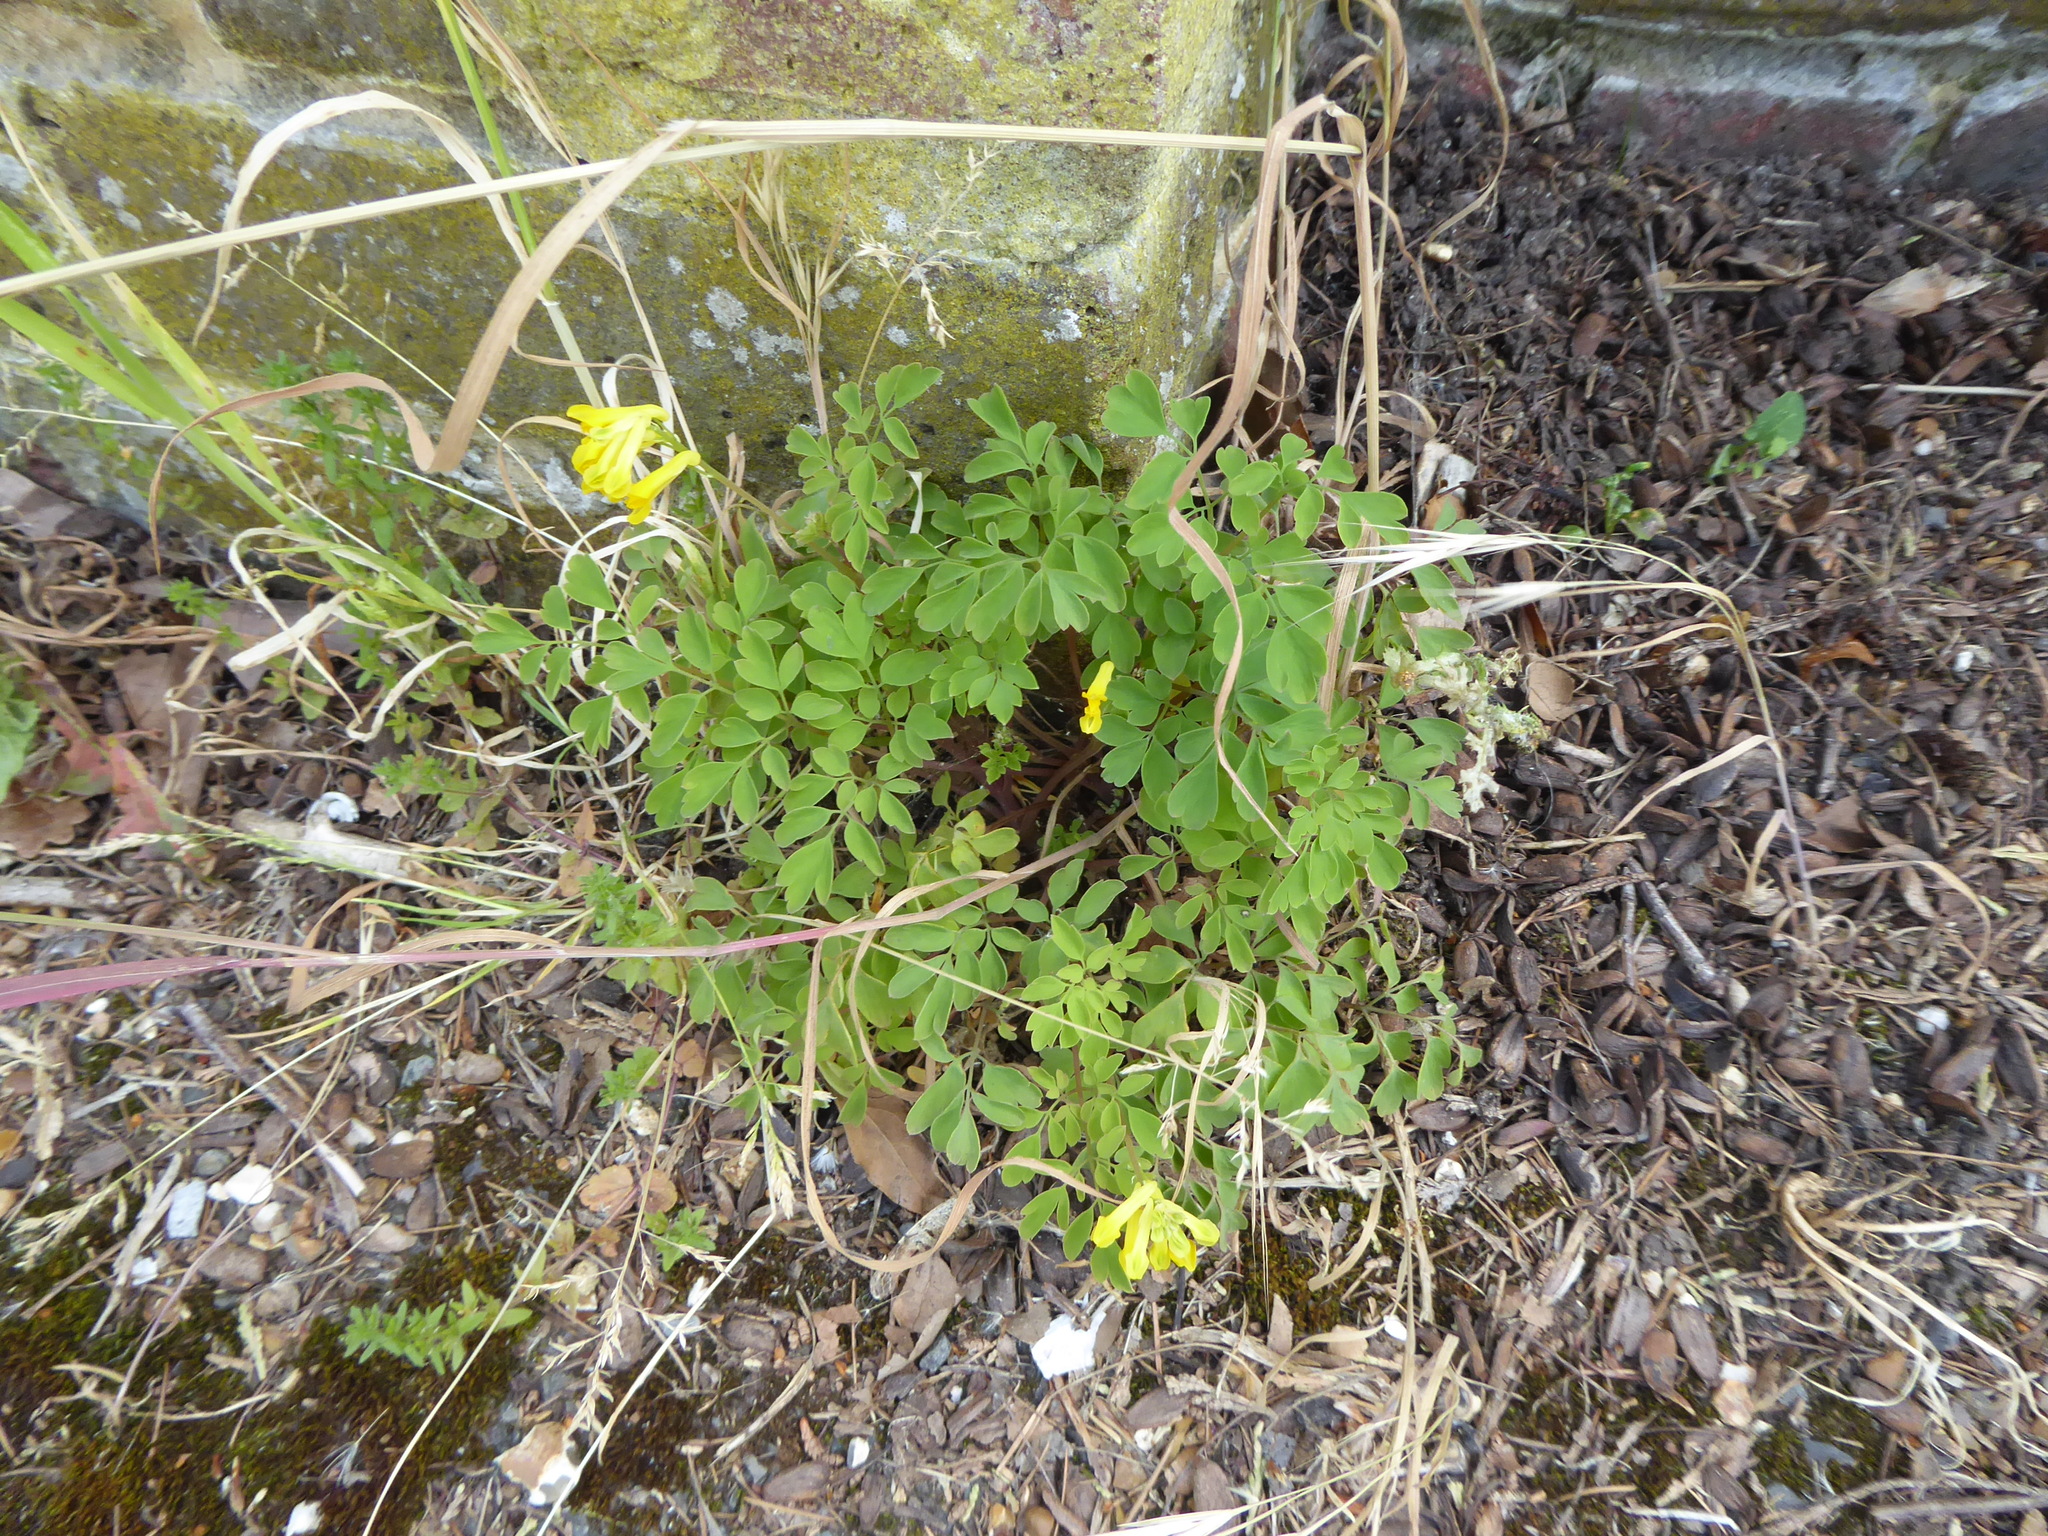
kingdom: Plantae
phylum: Tracheophyta
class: Magnoliopsida
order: Ranunculales
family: Papaveraceae
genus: Pseudofumaria
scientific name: Pseudofumaria lutea
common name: Yellow corydalis
